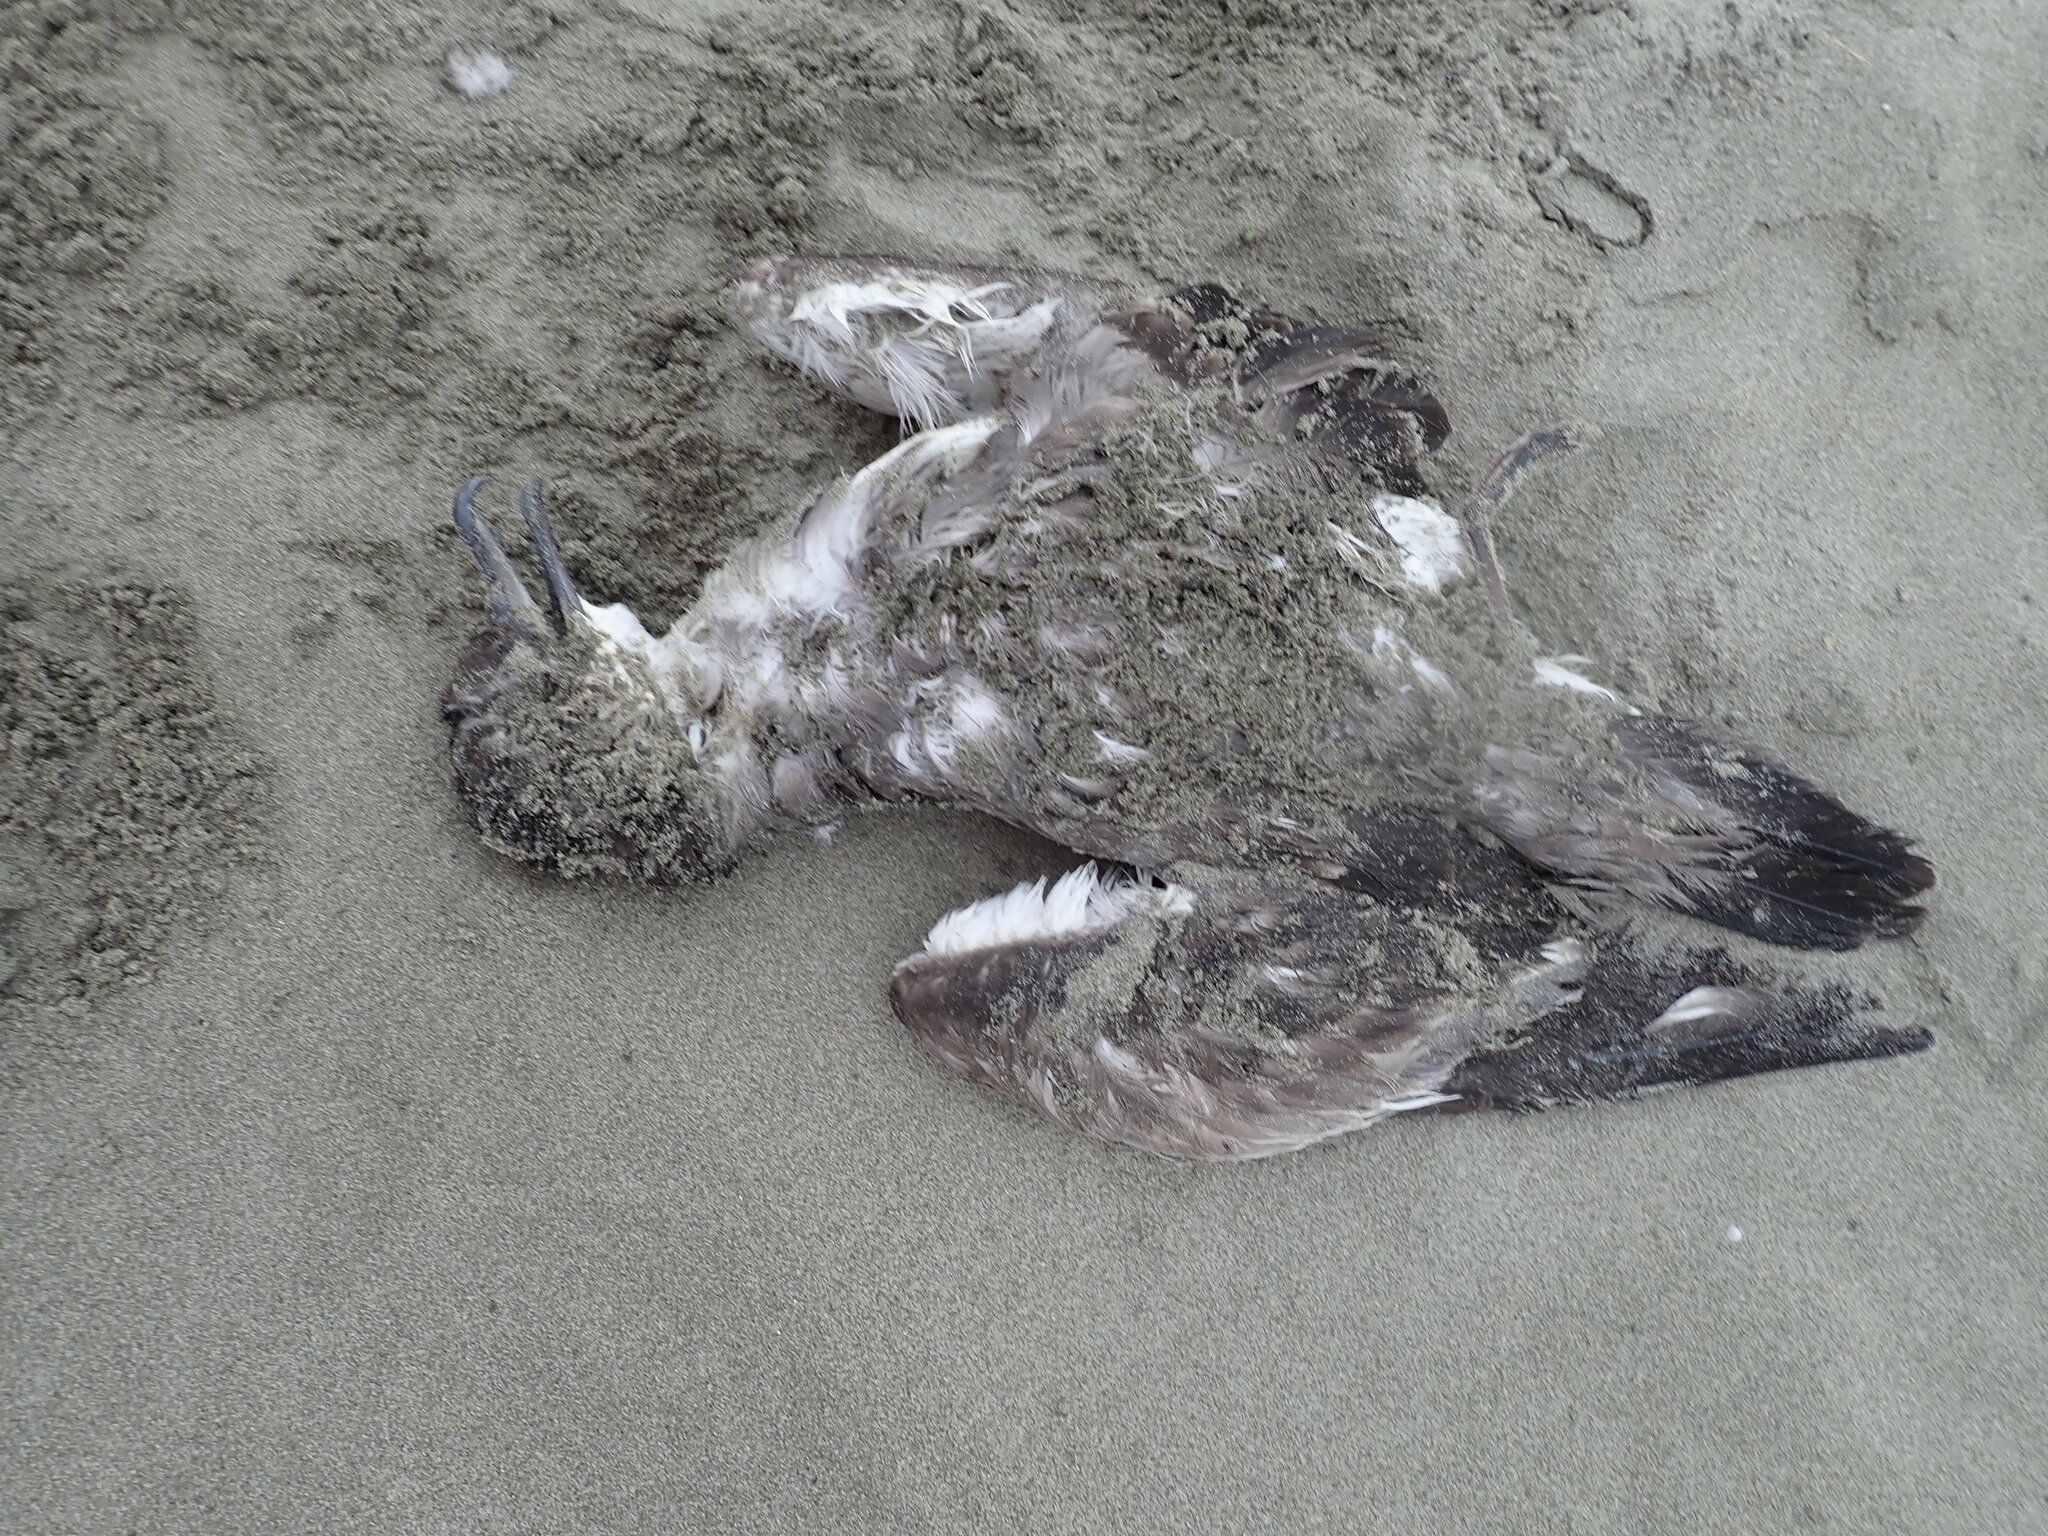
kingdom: Animalia
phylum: Chordata
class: Aves
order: Procellariiformes
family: Procellariidae
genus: Puffinus
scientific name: Puffinus bulleri
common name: Buller's shearwater
